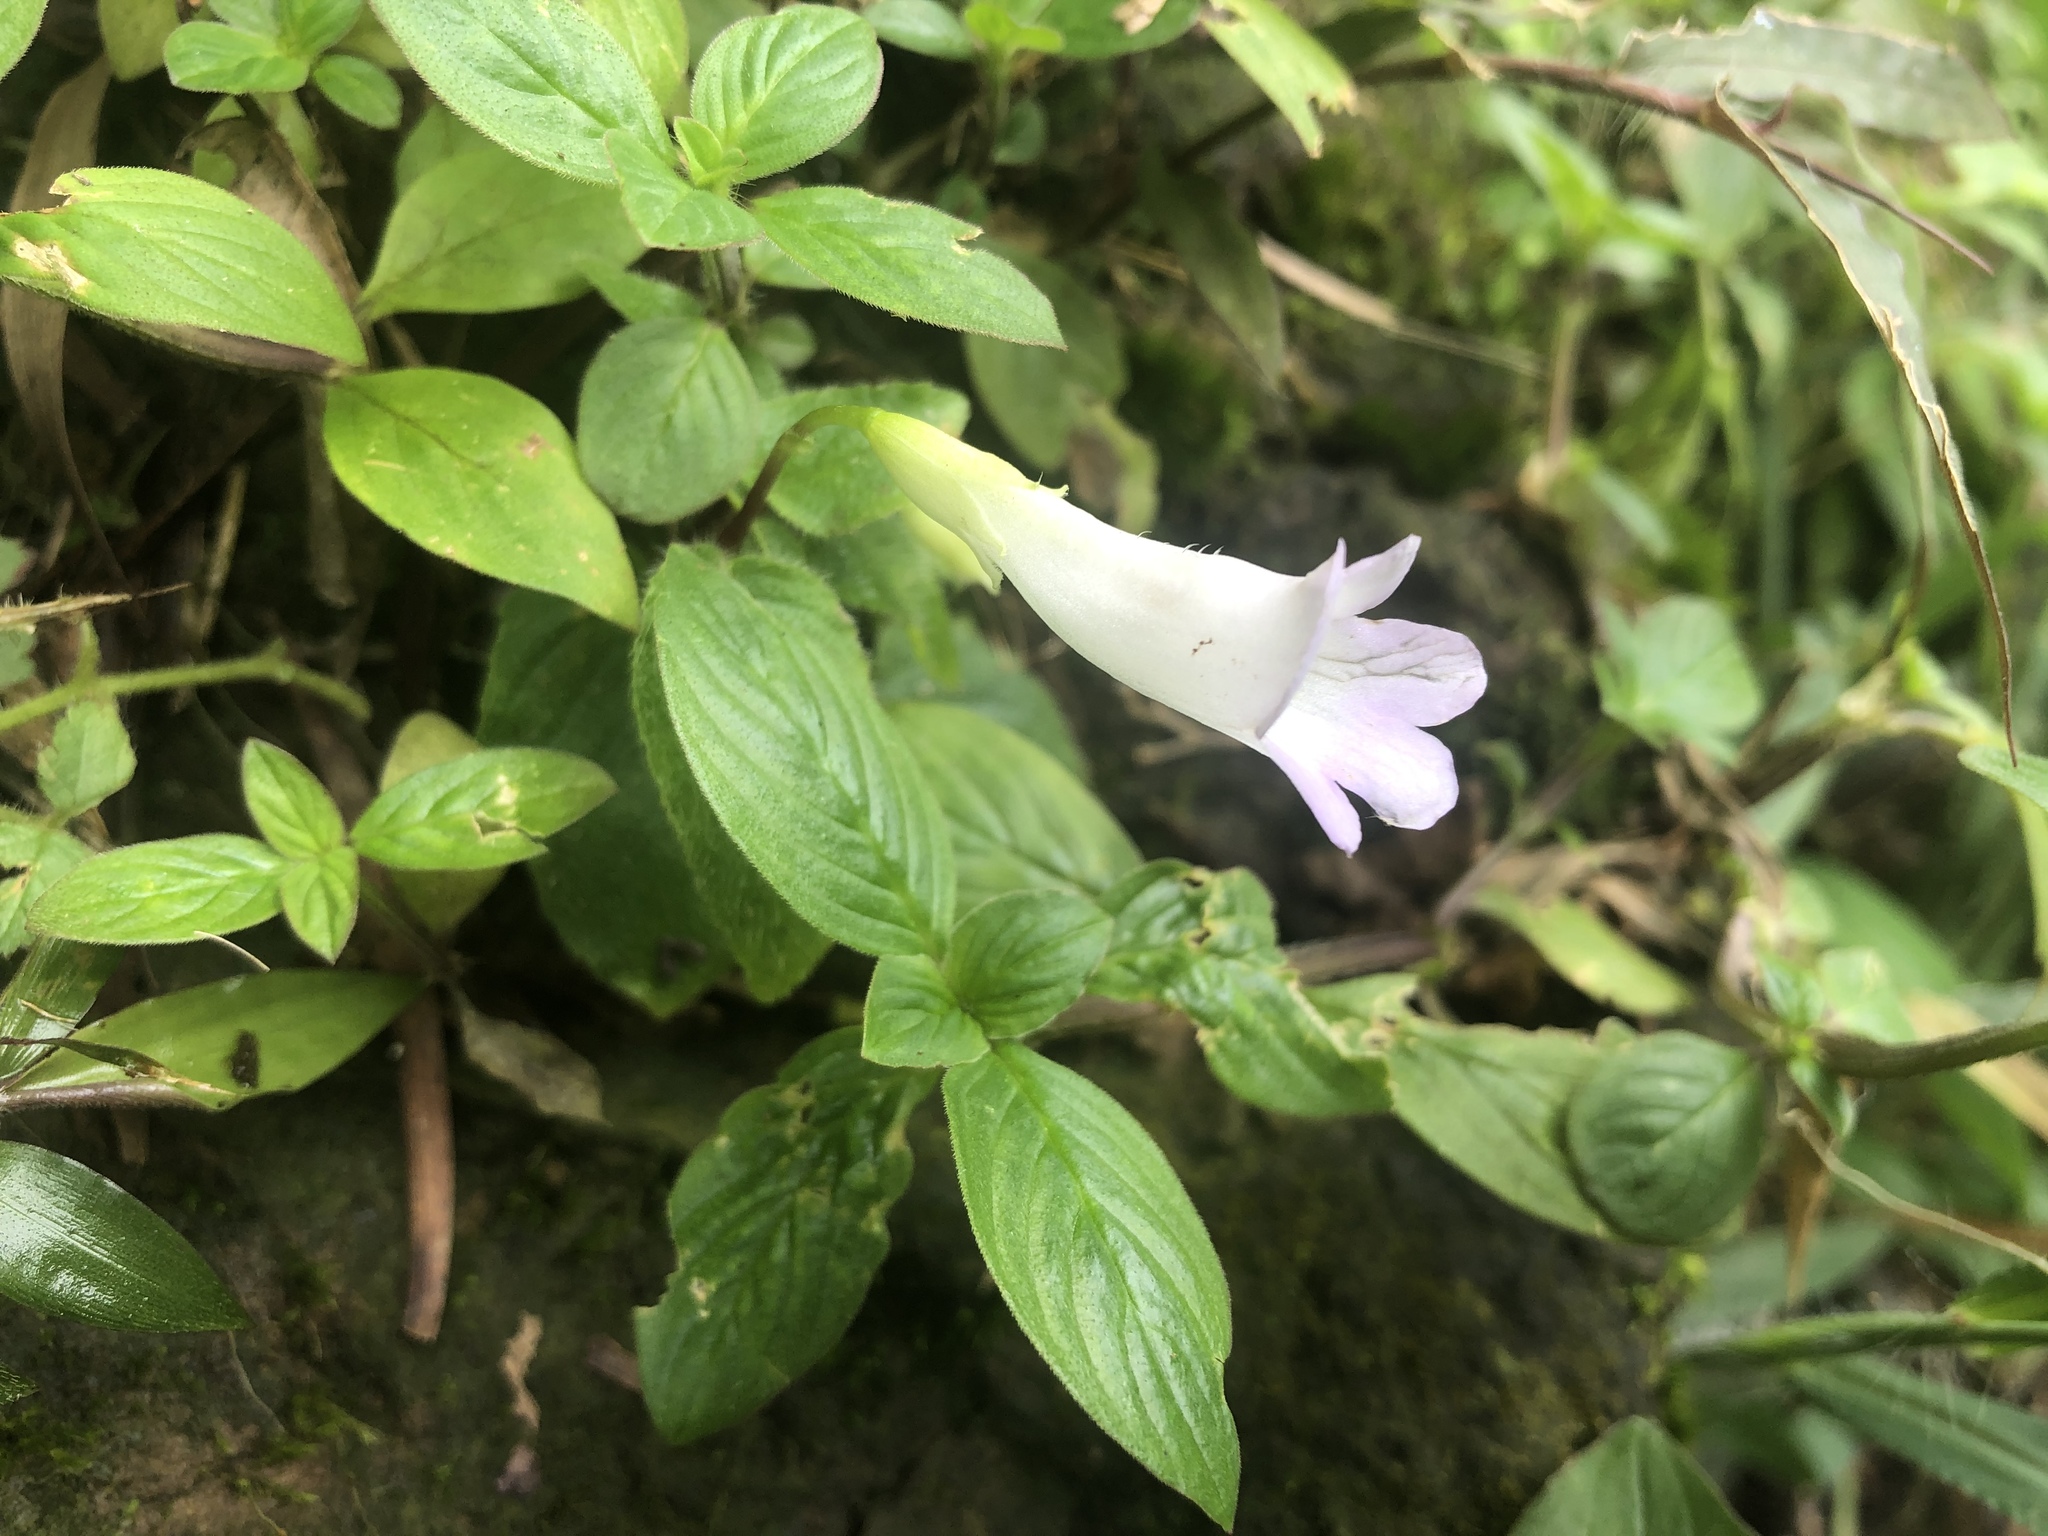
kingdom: Plantae
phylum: Tracheophyta
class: Magnoliopsida
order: Lamiales
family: Gesneriaceae
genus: Henckelia
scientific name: Henckelia anachoreta
